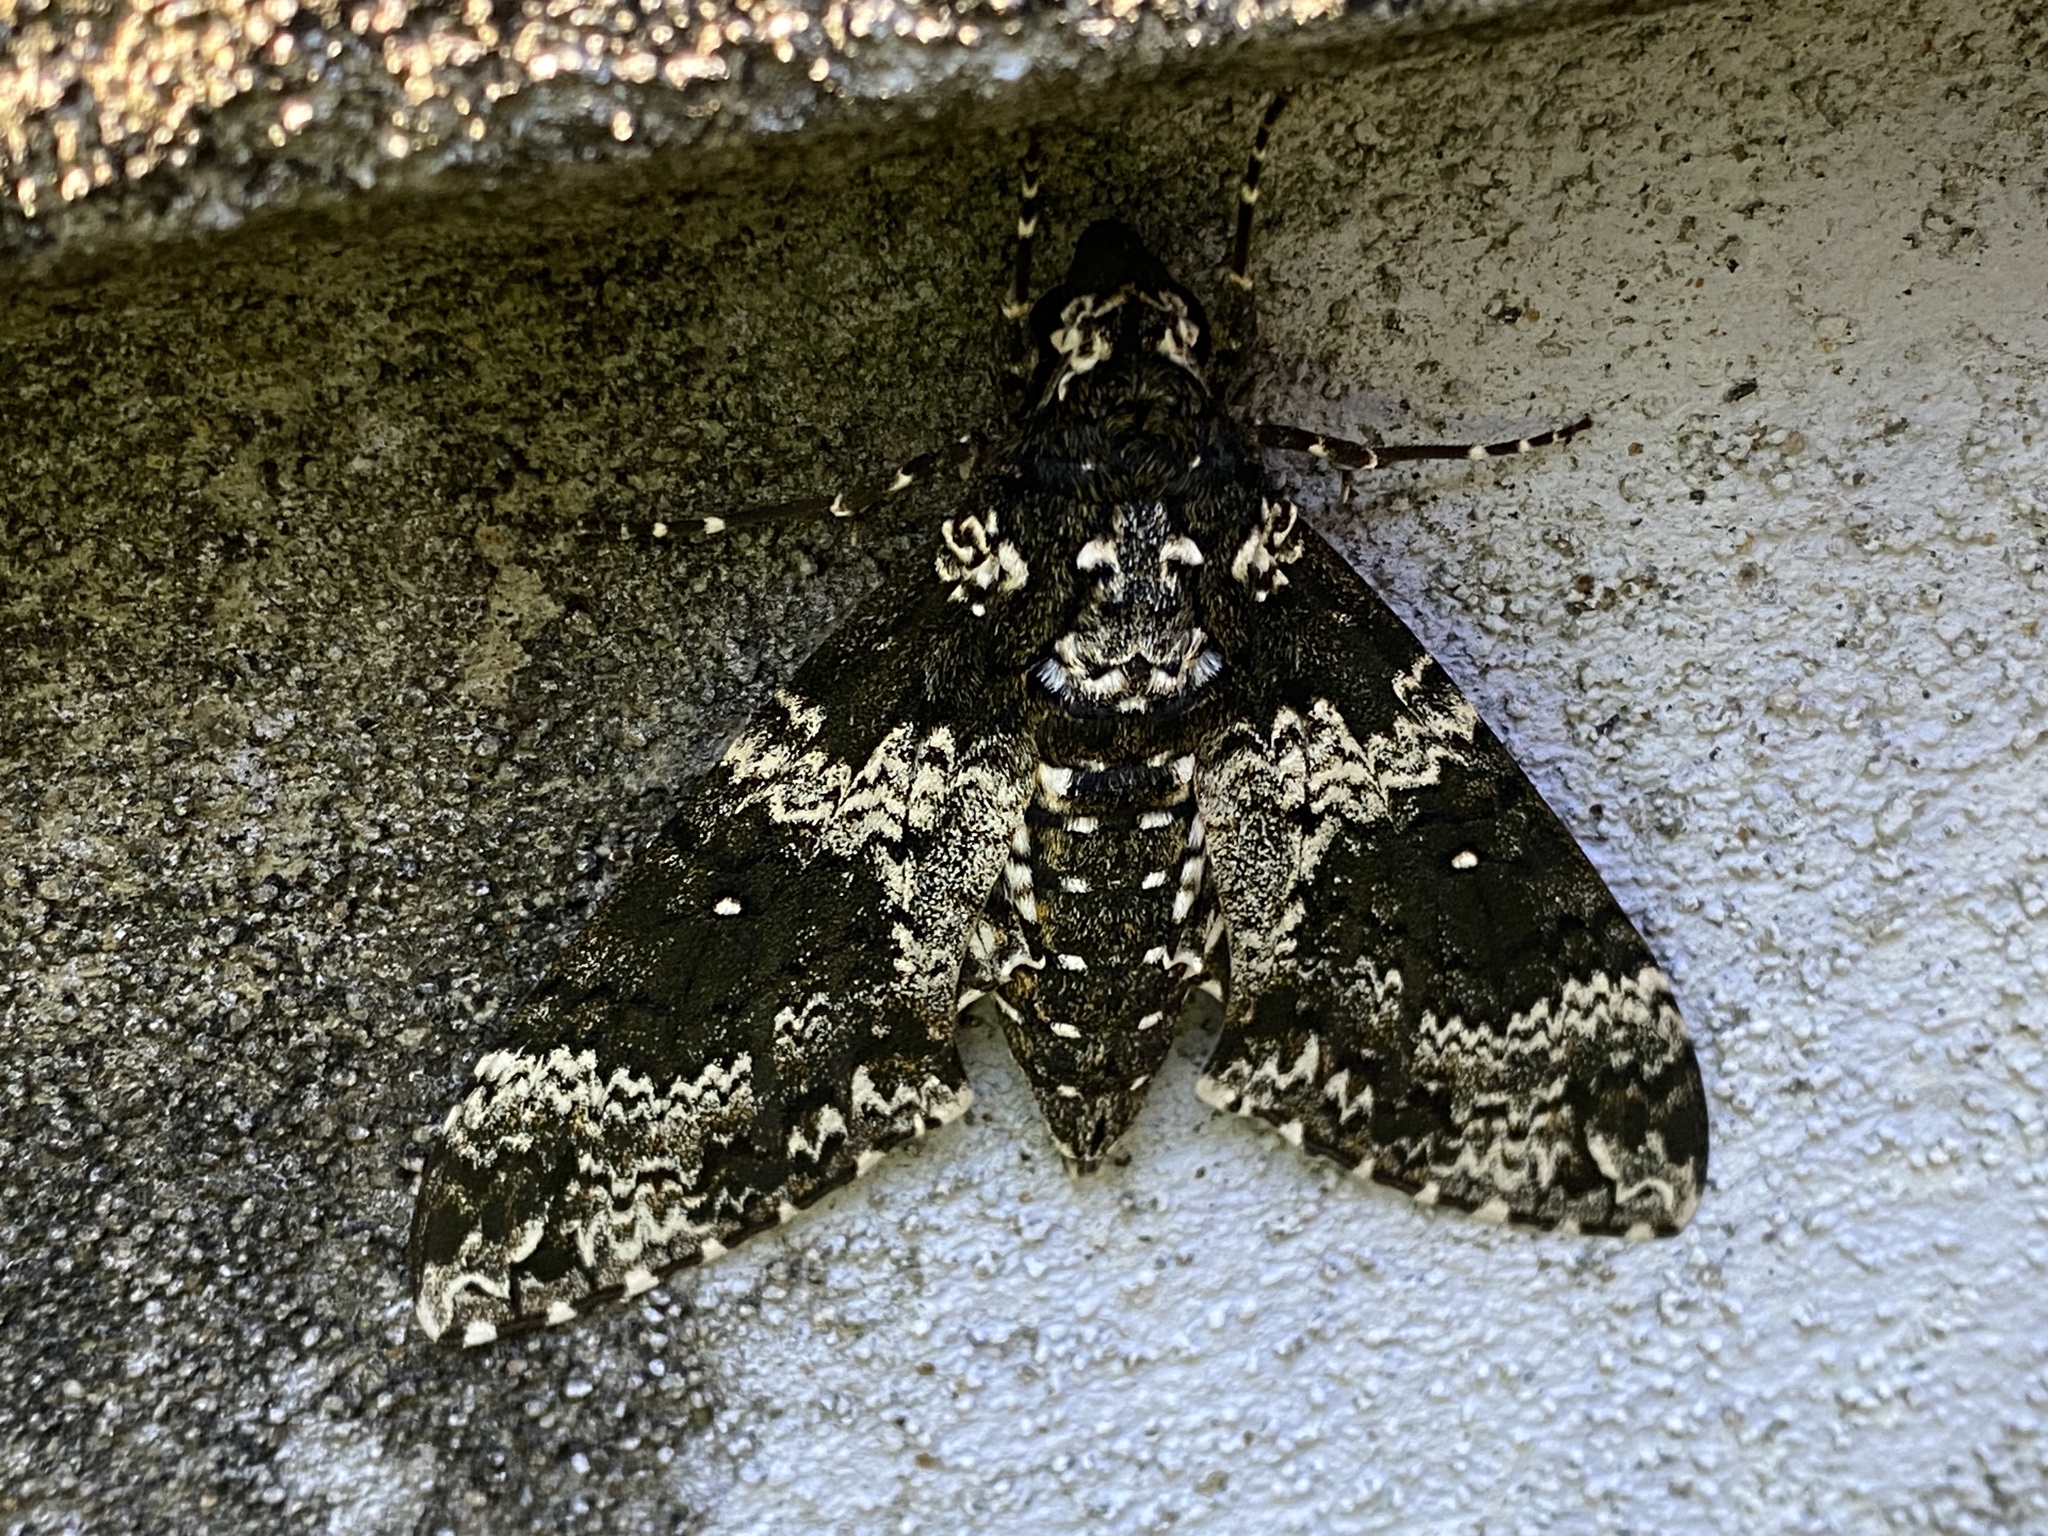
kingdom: Animalia
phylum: Arthropoda
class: Insecta
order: Lepidoptera
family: Sphingidae
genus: Manduca
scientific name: Manduca rustica
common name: Rustic sphinx
